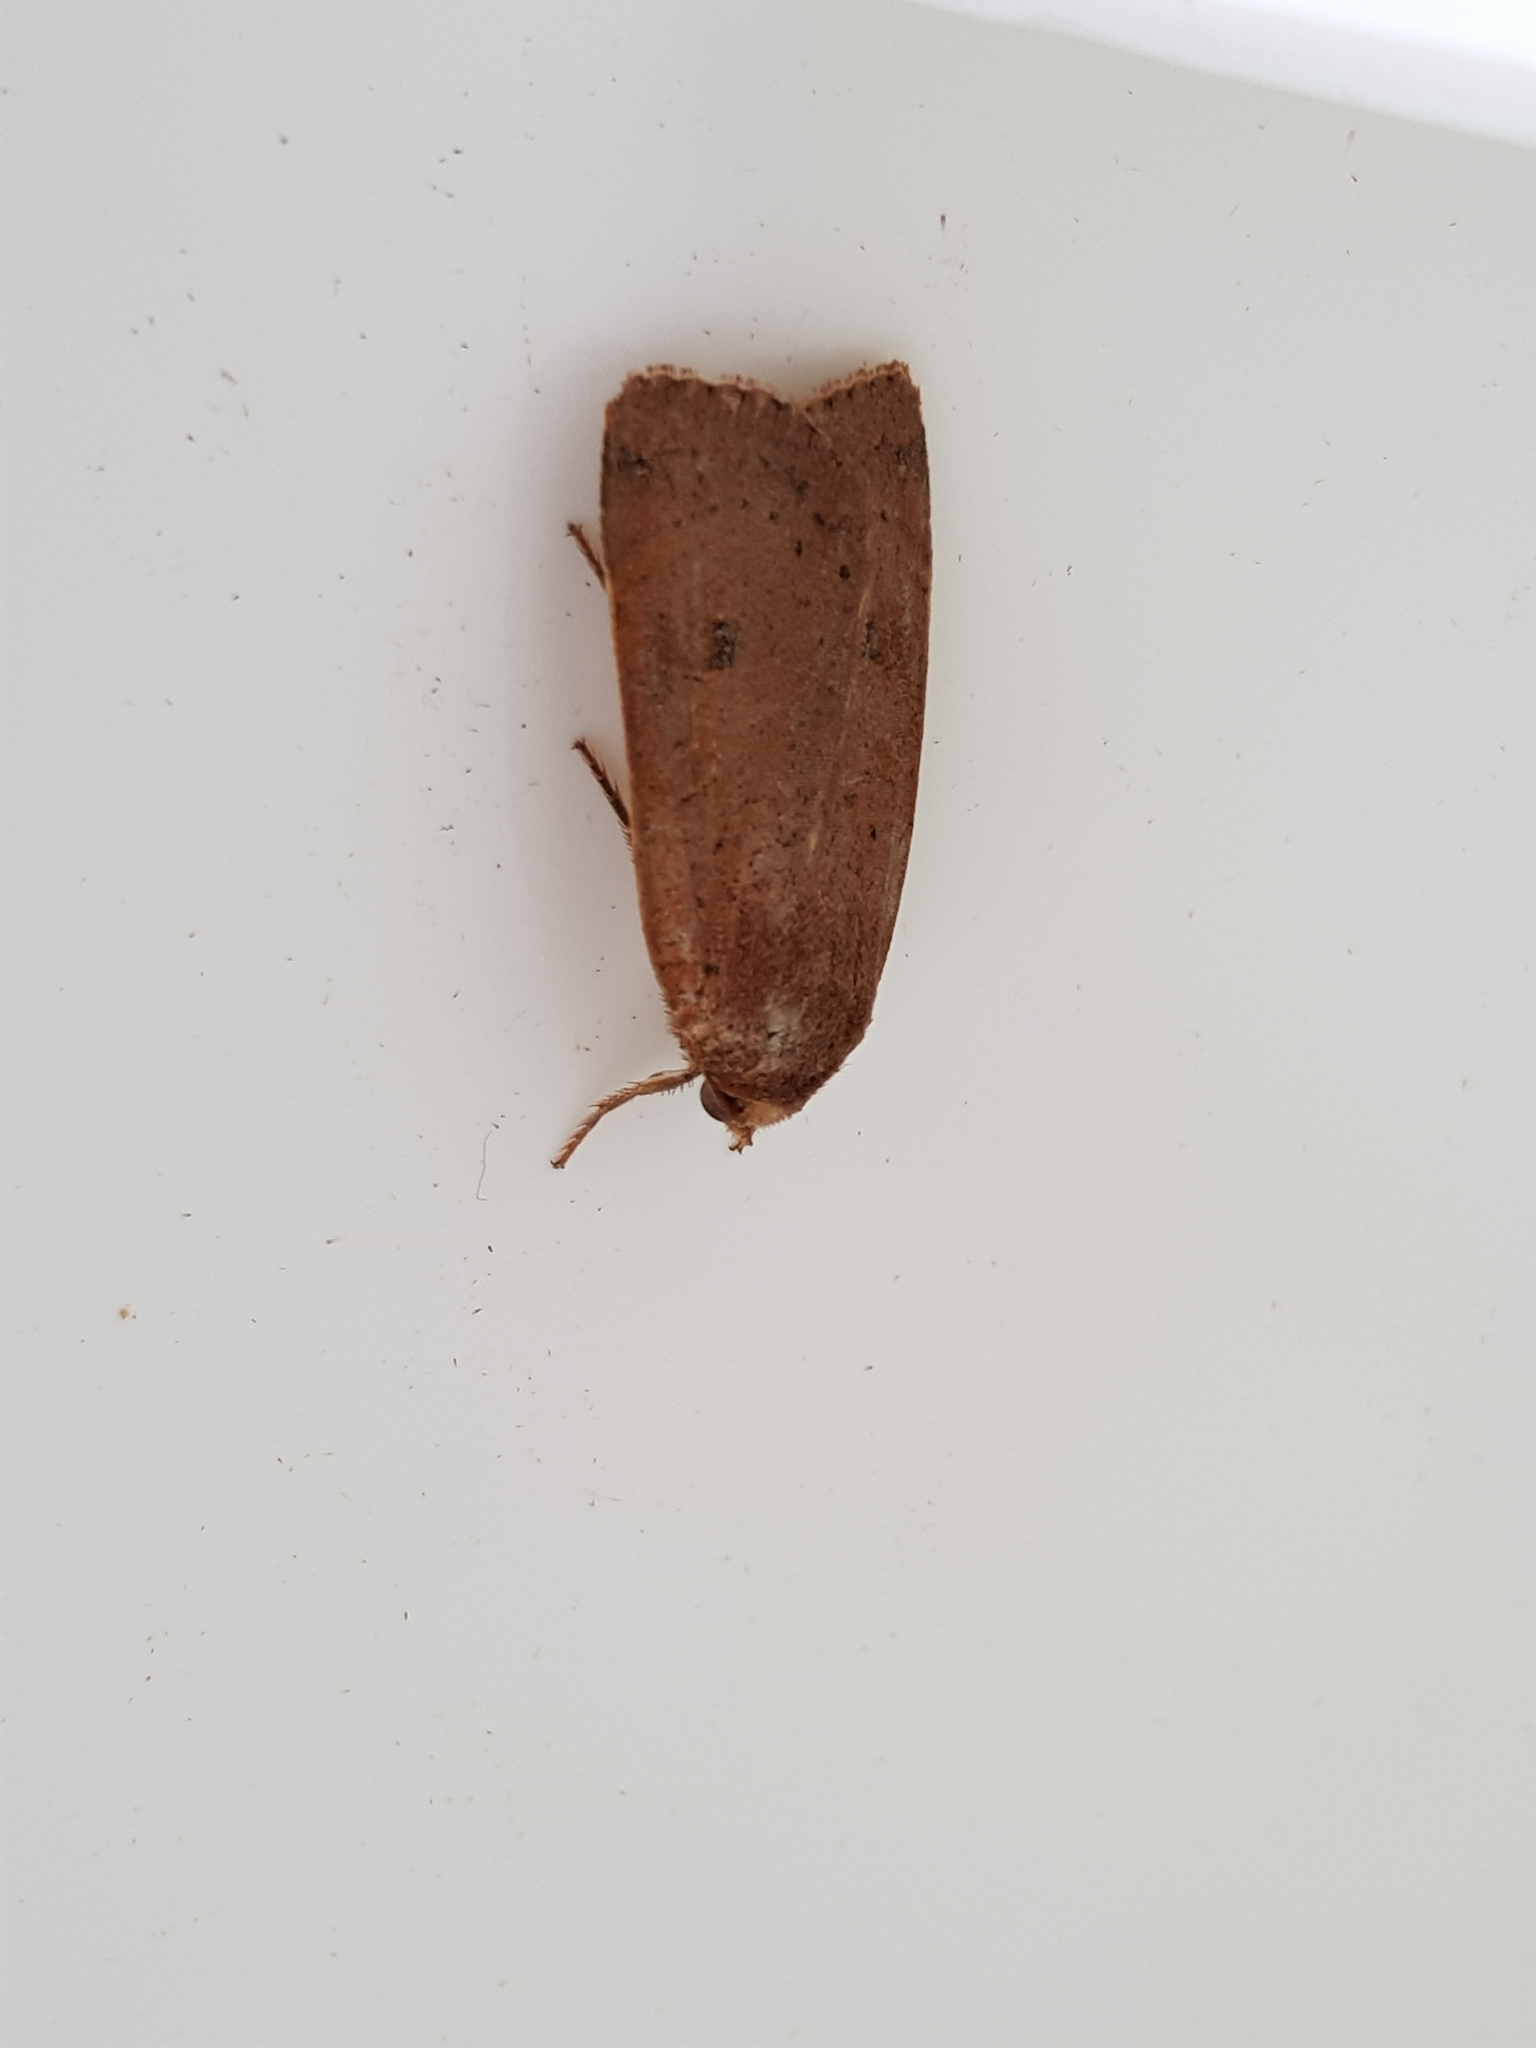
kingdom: Animalia
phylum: Arthropoda
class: Insecta
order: Lepidoptera
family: Noctuidae
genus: Noctua
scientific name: Noctua comes
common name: Lesser yellow underwing
